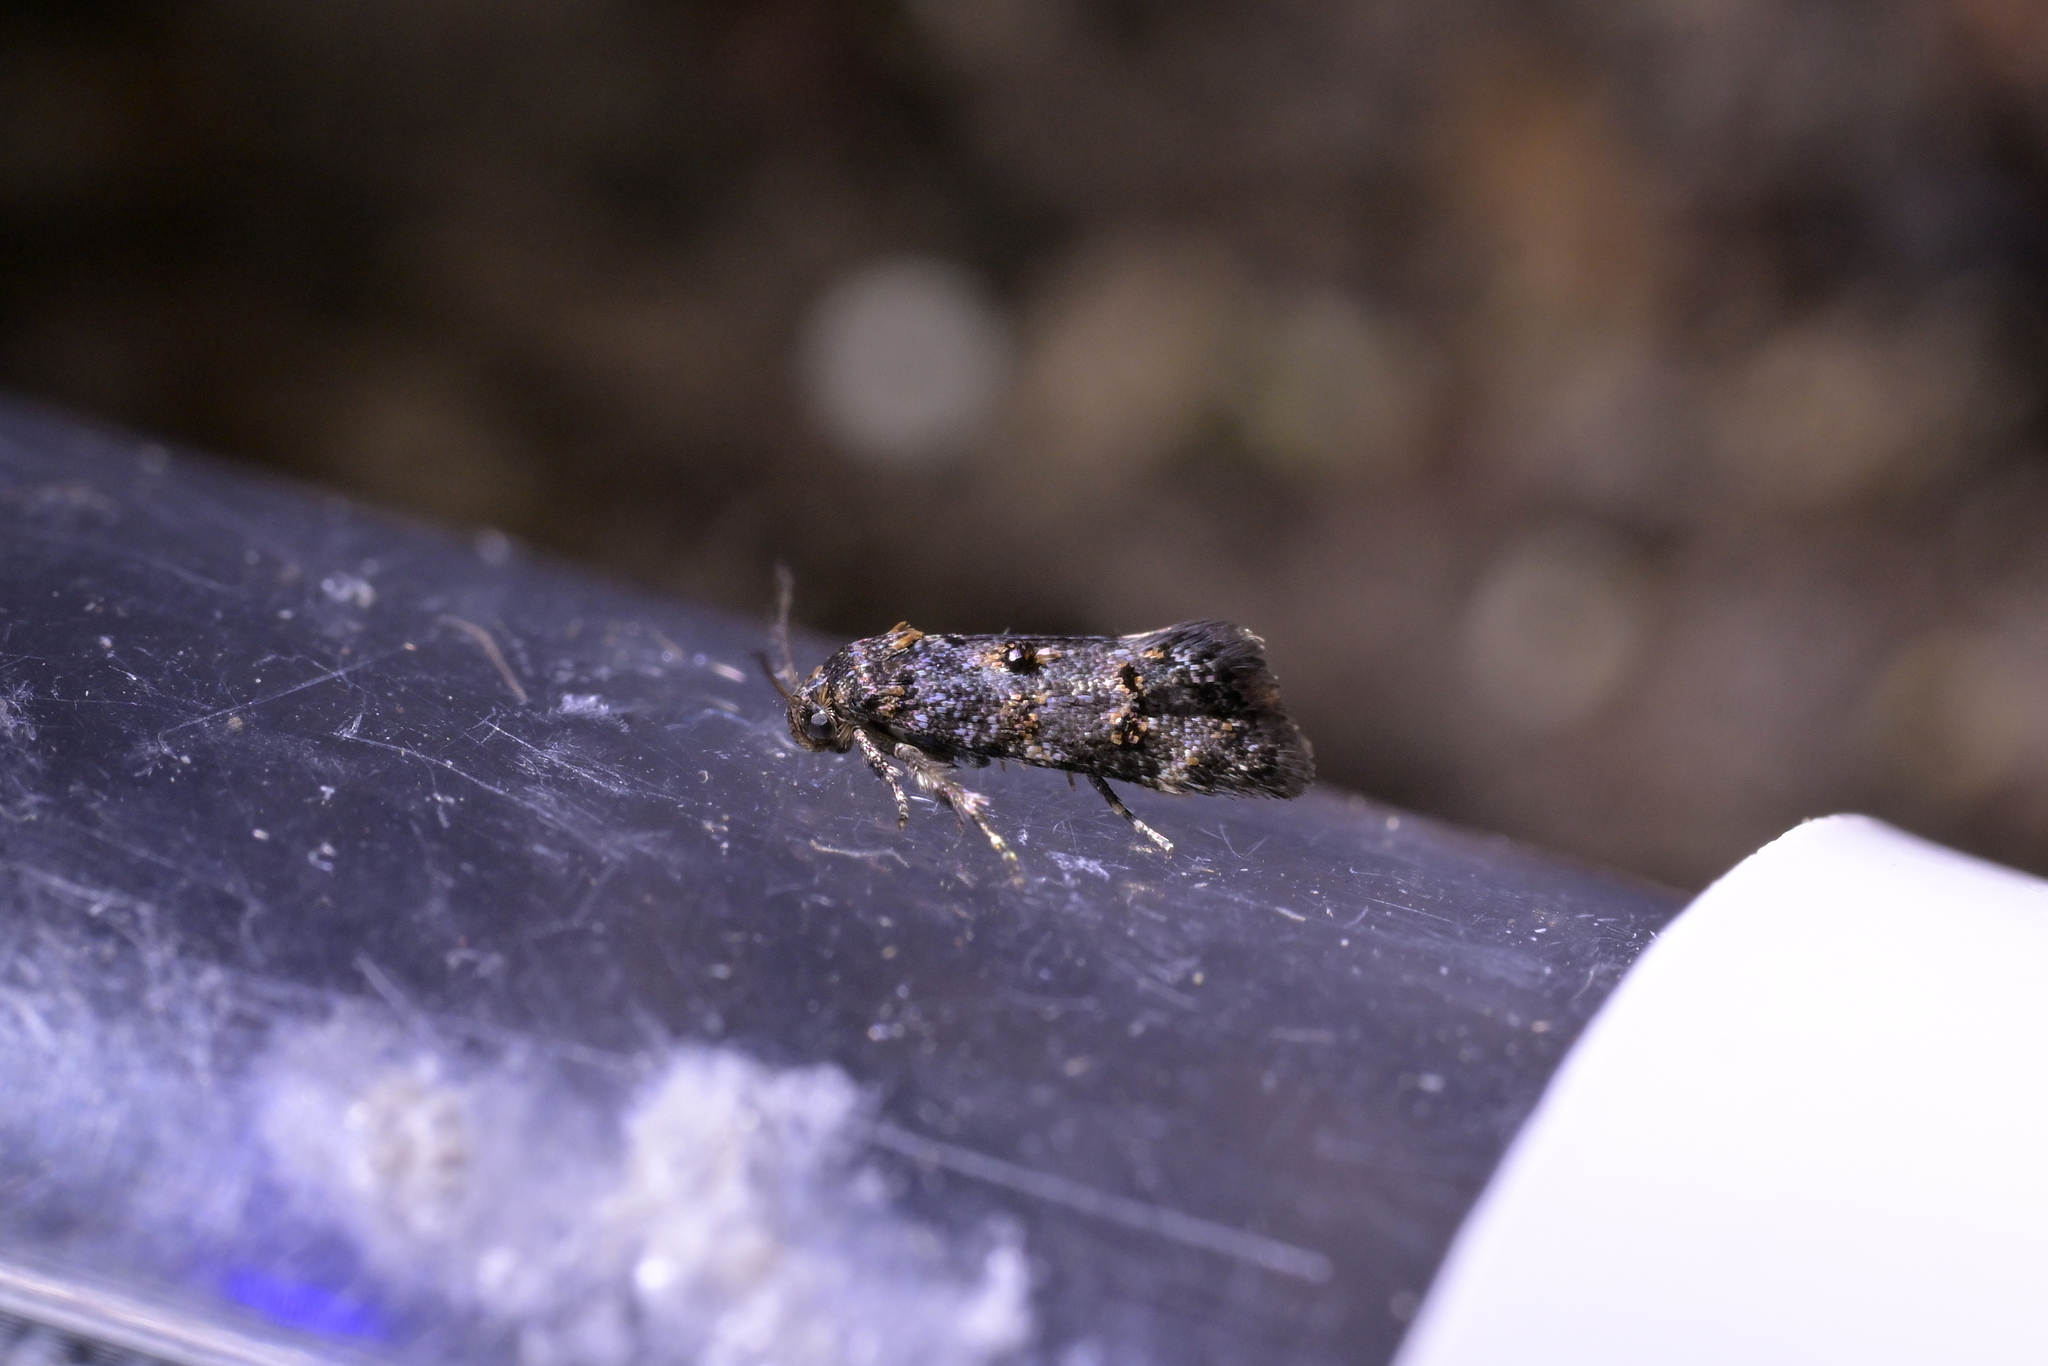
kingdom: Animalia
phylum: Arthropoda
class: Insecta
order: Lepidoptera
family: Oecophoridae
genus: Corocosma
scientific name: Corocosma memorabilis
